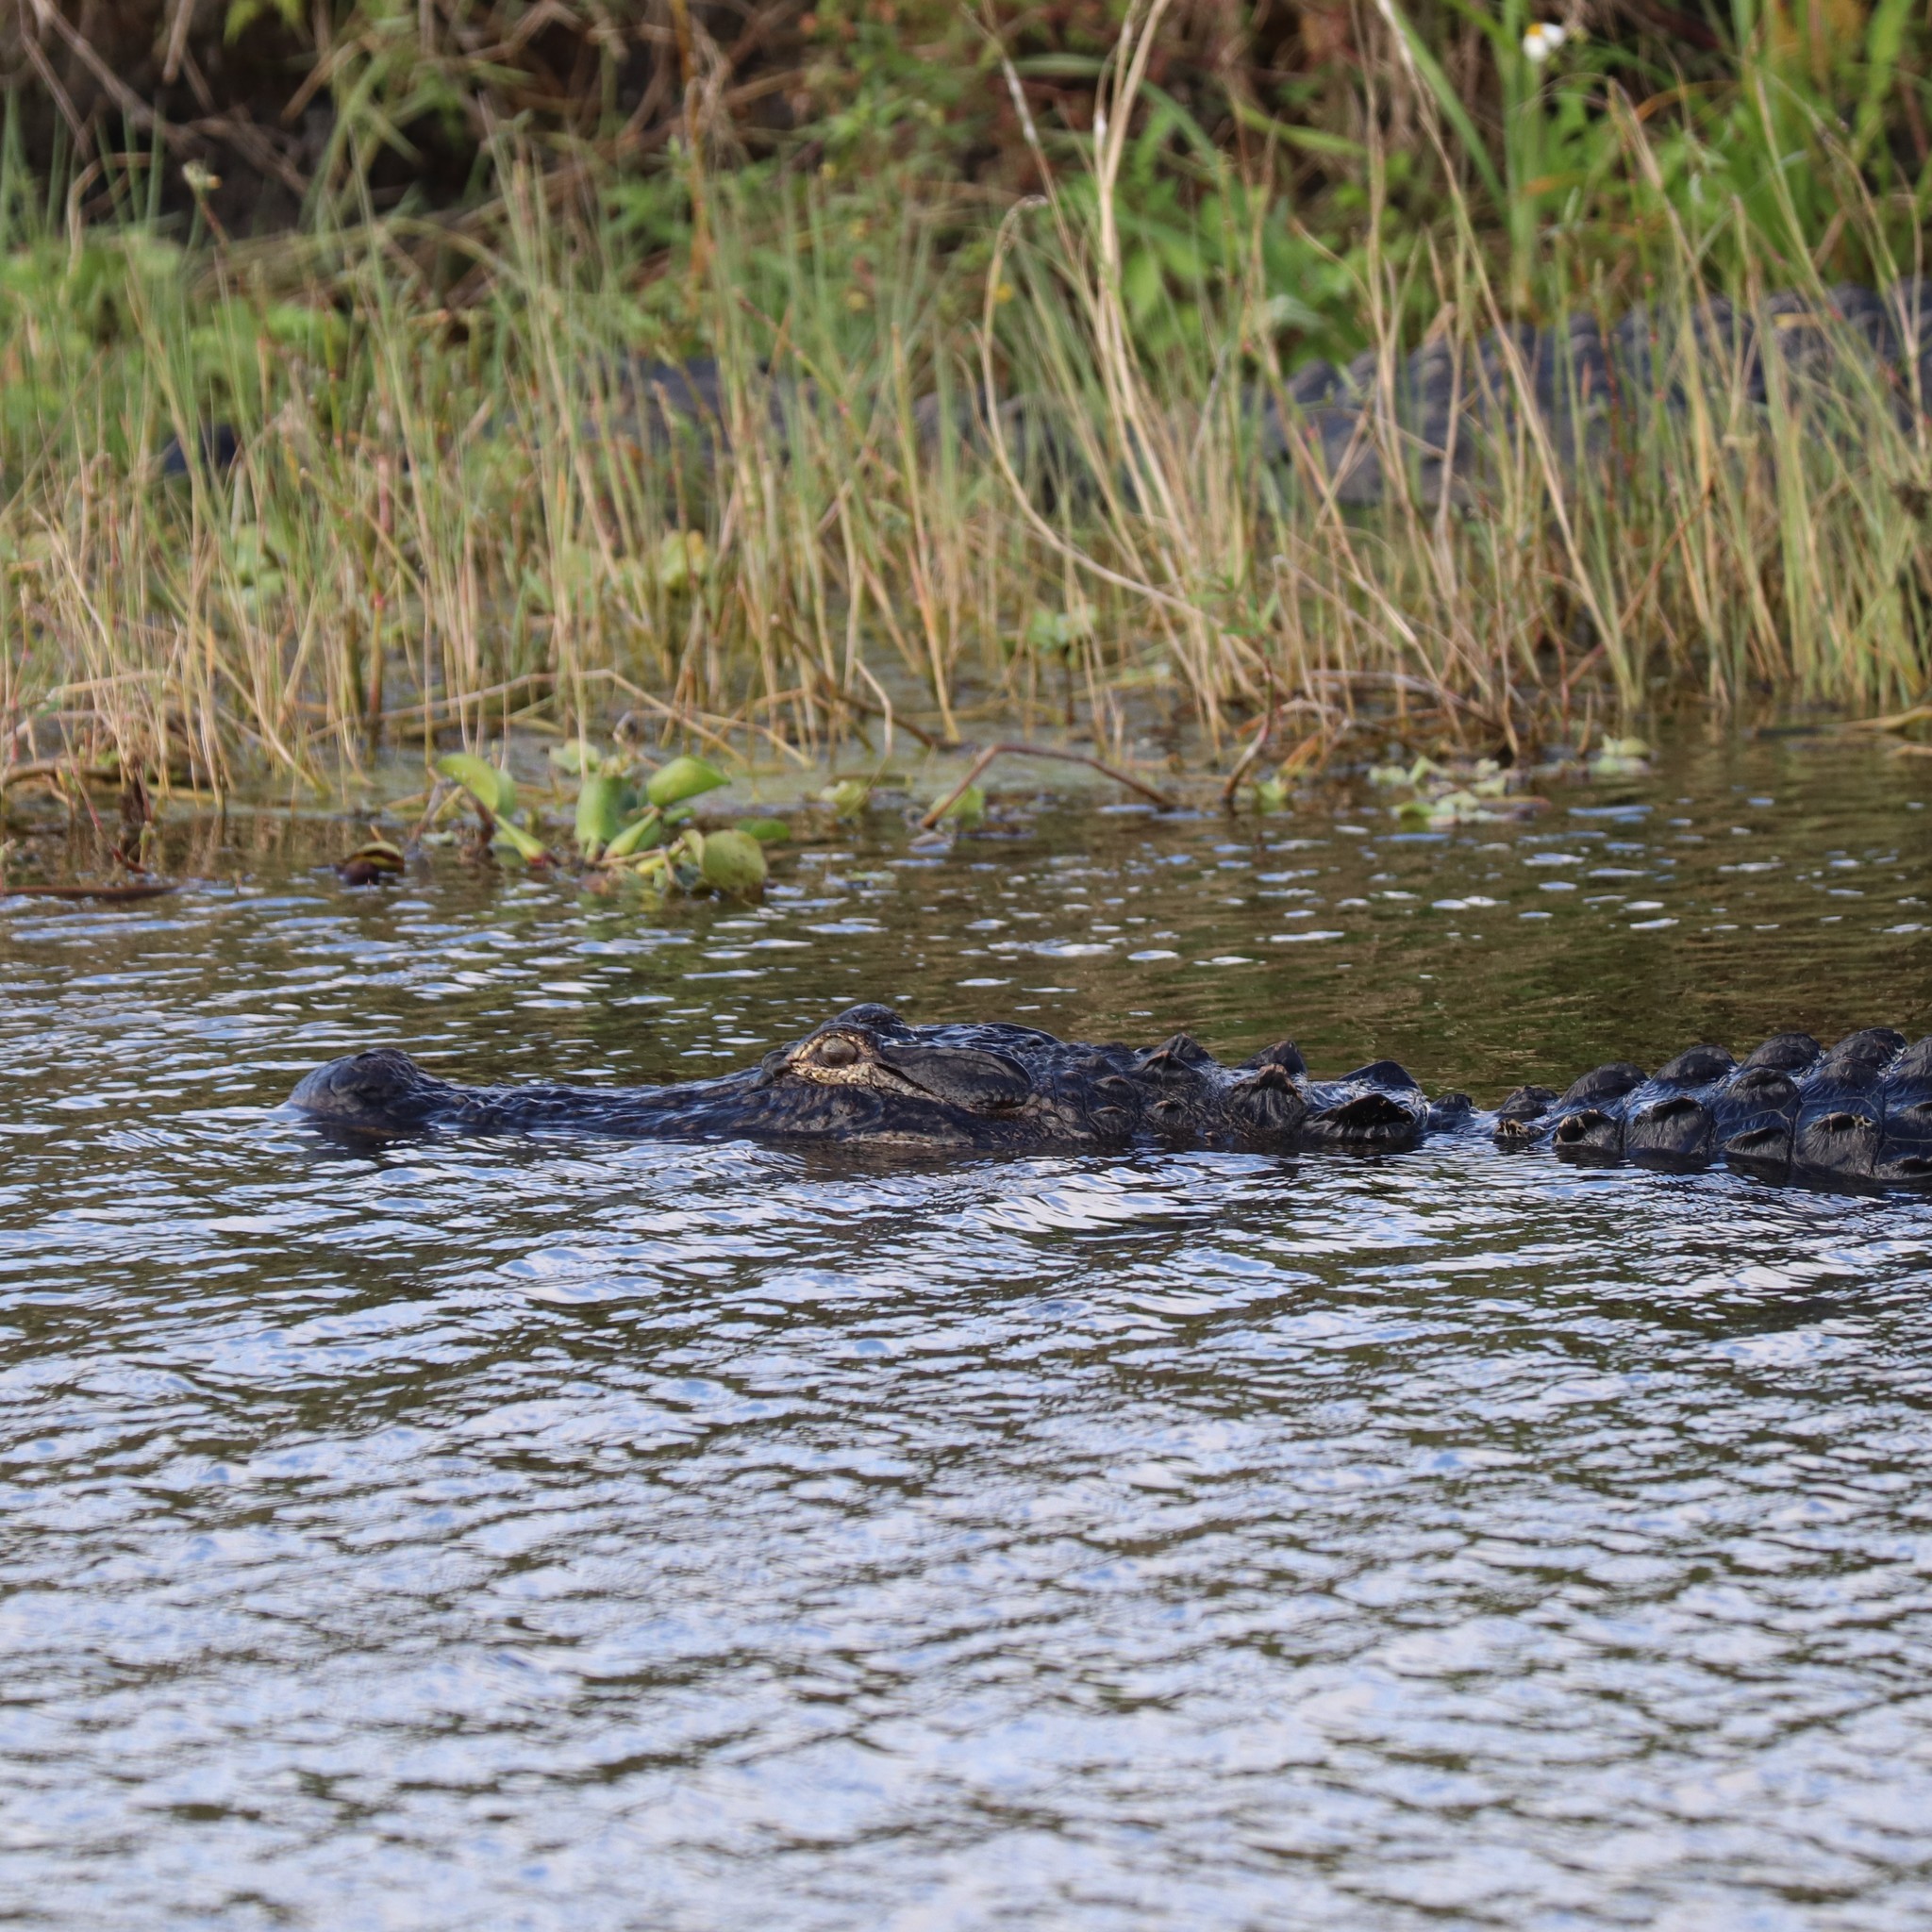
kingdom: Animalia
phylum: Chordata
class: Crocodylia
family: Alligatoridae
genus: Alligator
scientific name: Alligator mississippiensis
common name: American alligator
